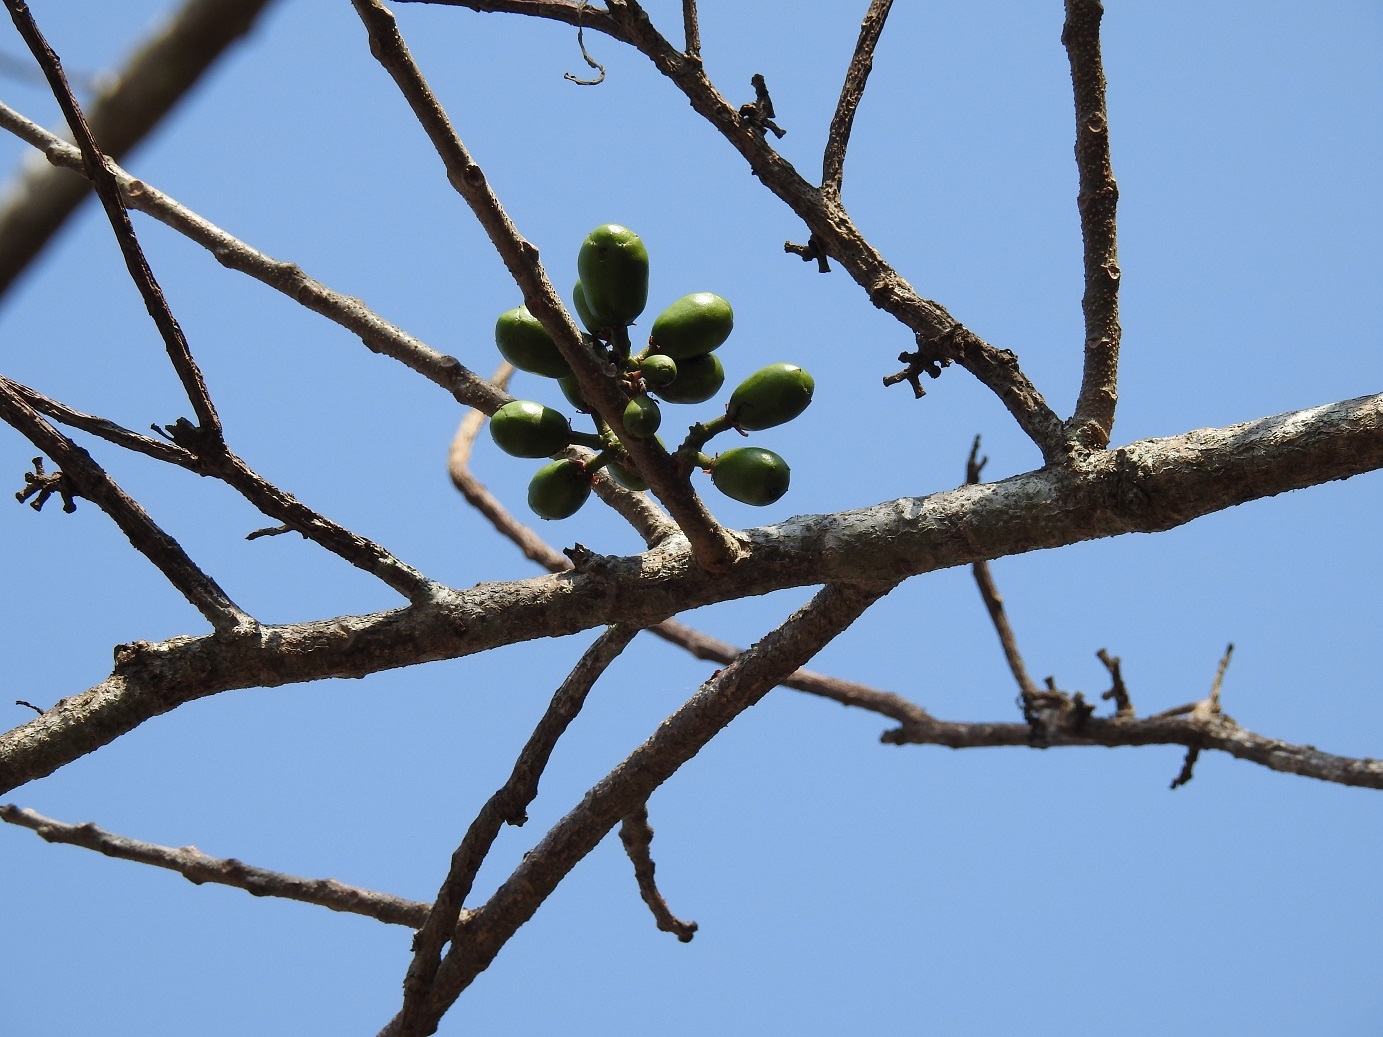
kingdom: Plantae
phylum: Tracheophyta
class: Magnoliopsida
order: Sapindales
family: Anacardiaceae
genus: Spondias
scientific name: Spondias purpurea
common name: Purple mombin
